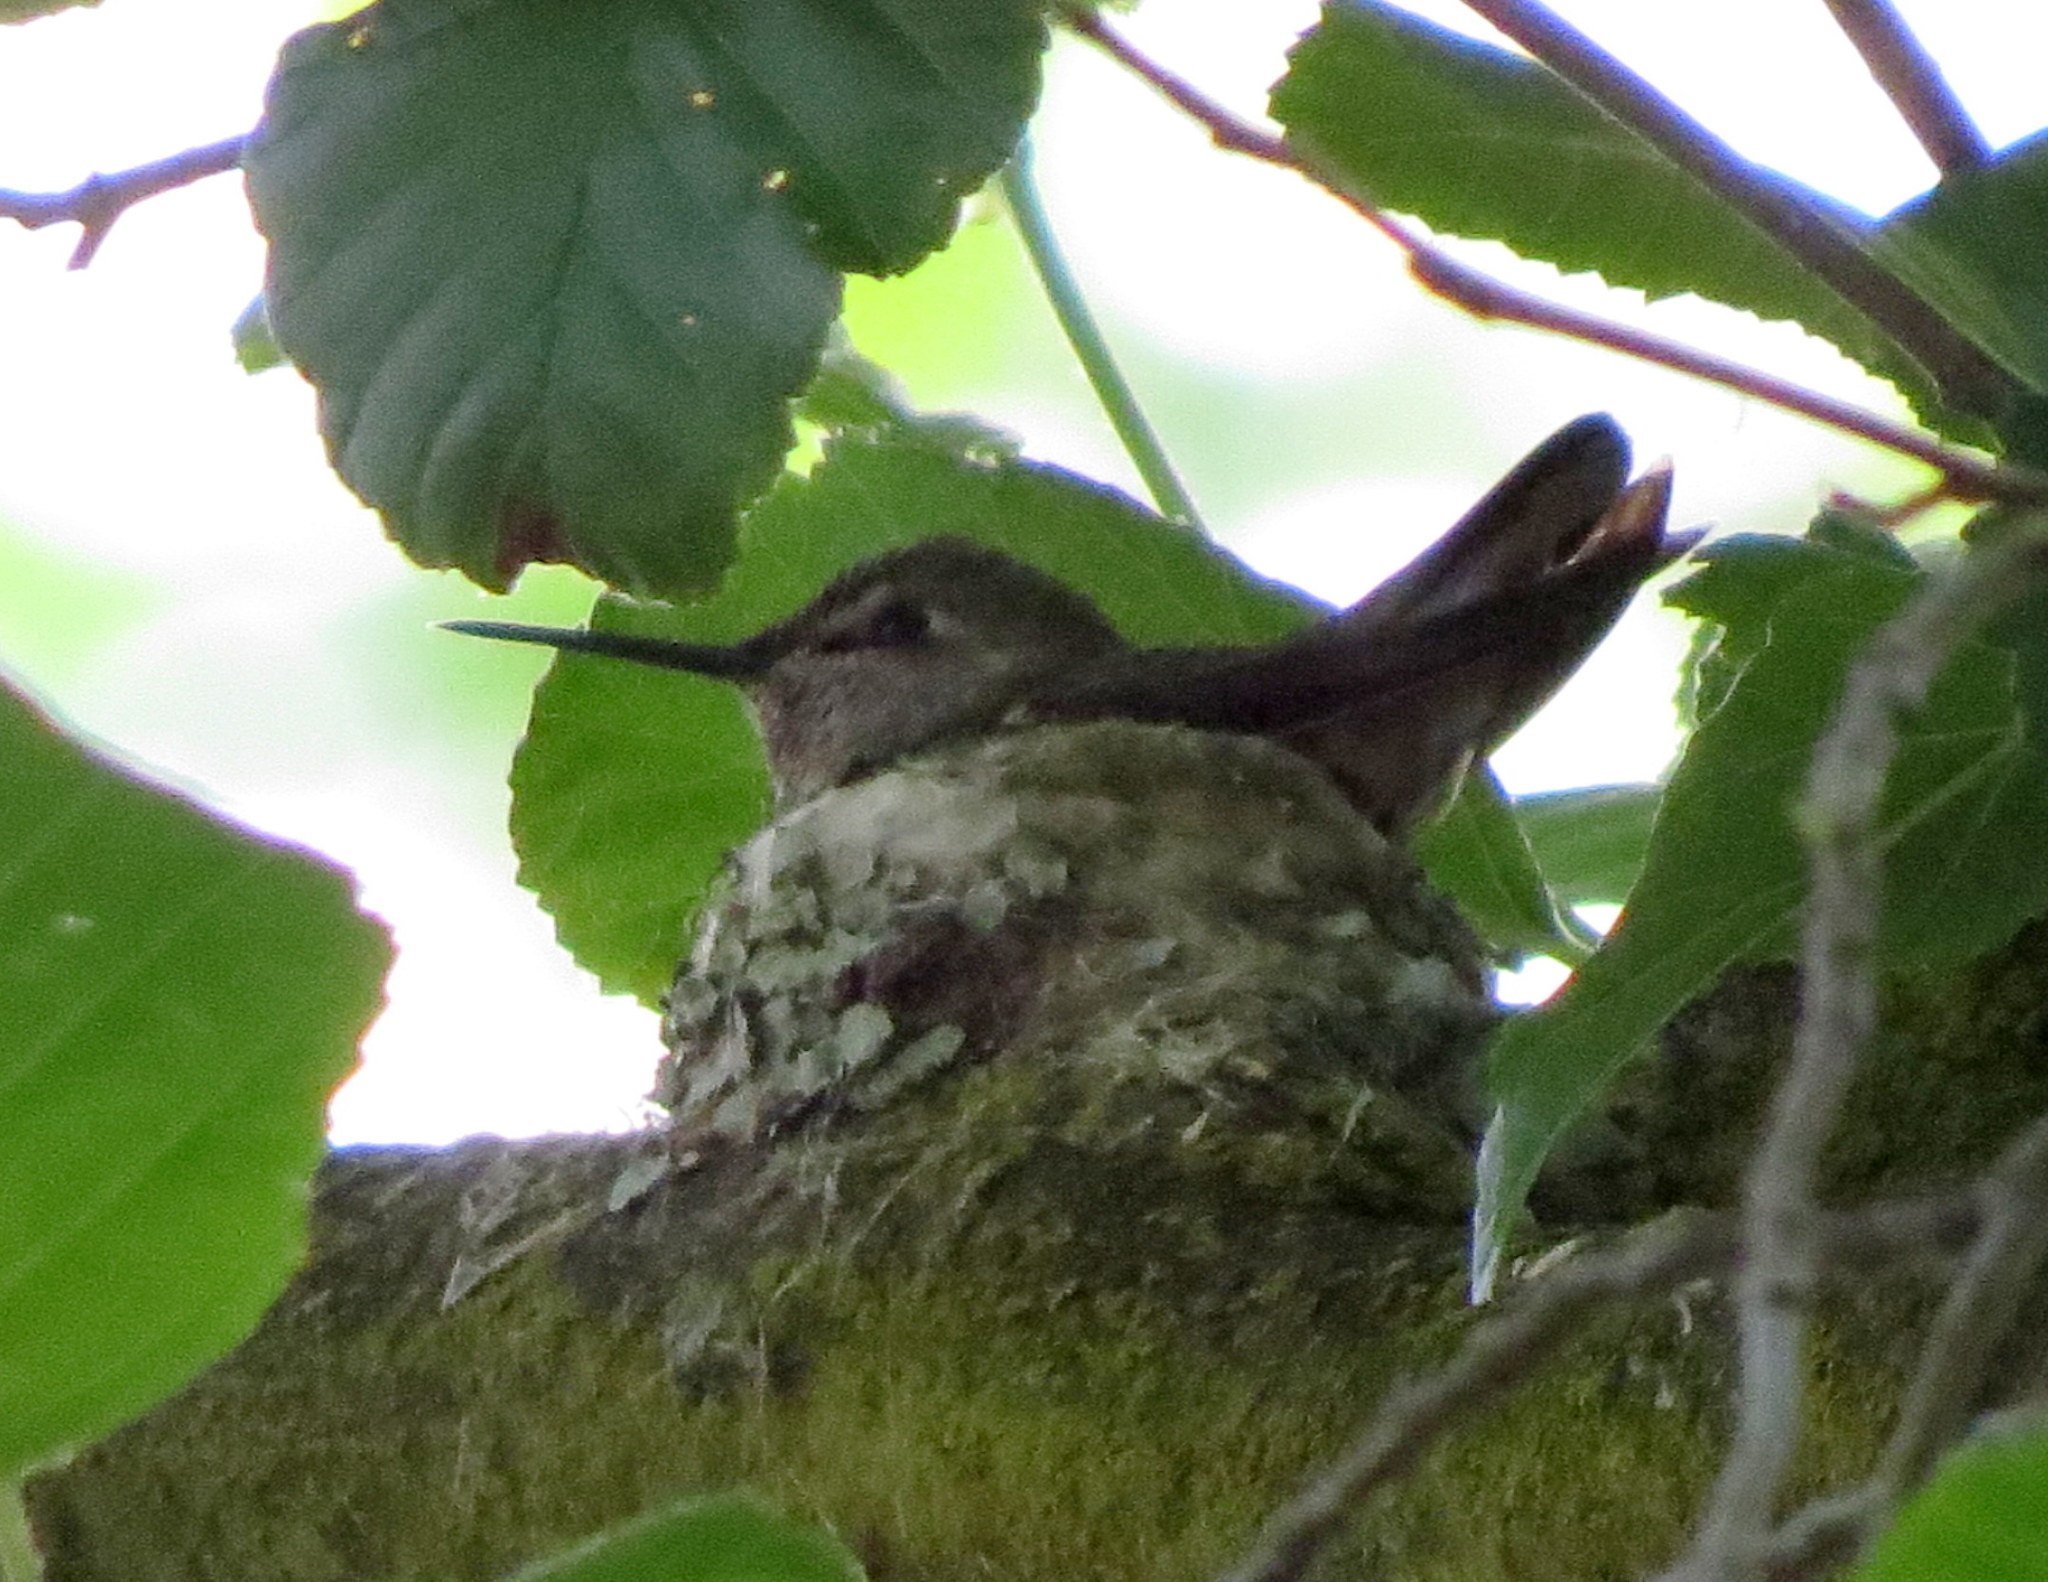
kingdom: Animalia
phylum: Chordata
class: Aves
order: Apodiformes
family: Trochilidae
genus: Calypte
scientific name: Calypte anna
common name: Anna's hummingbird
